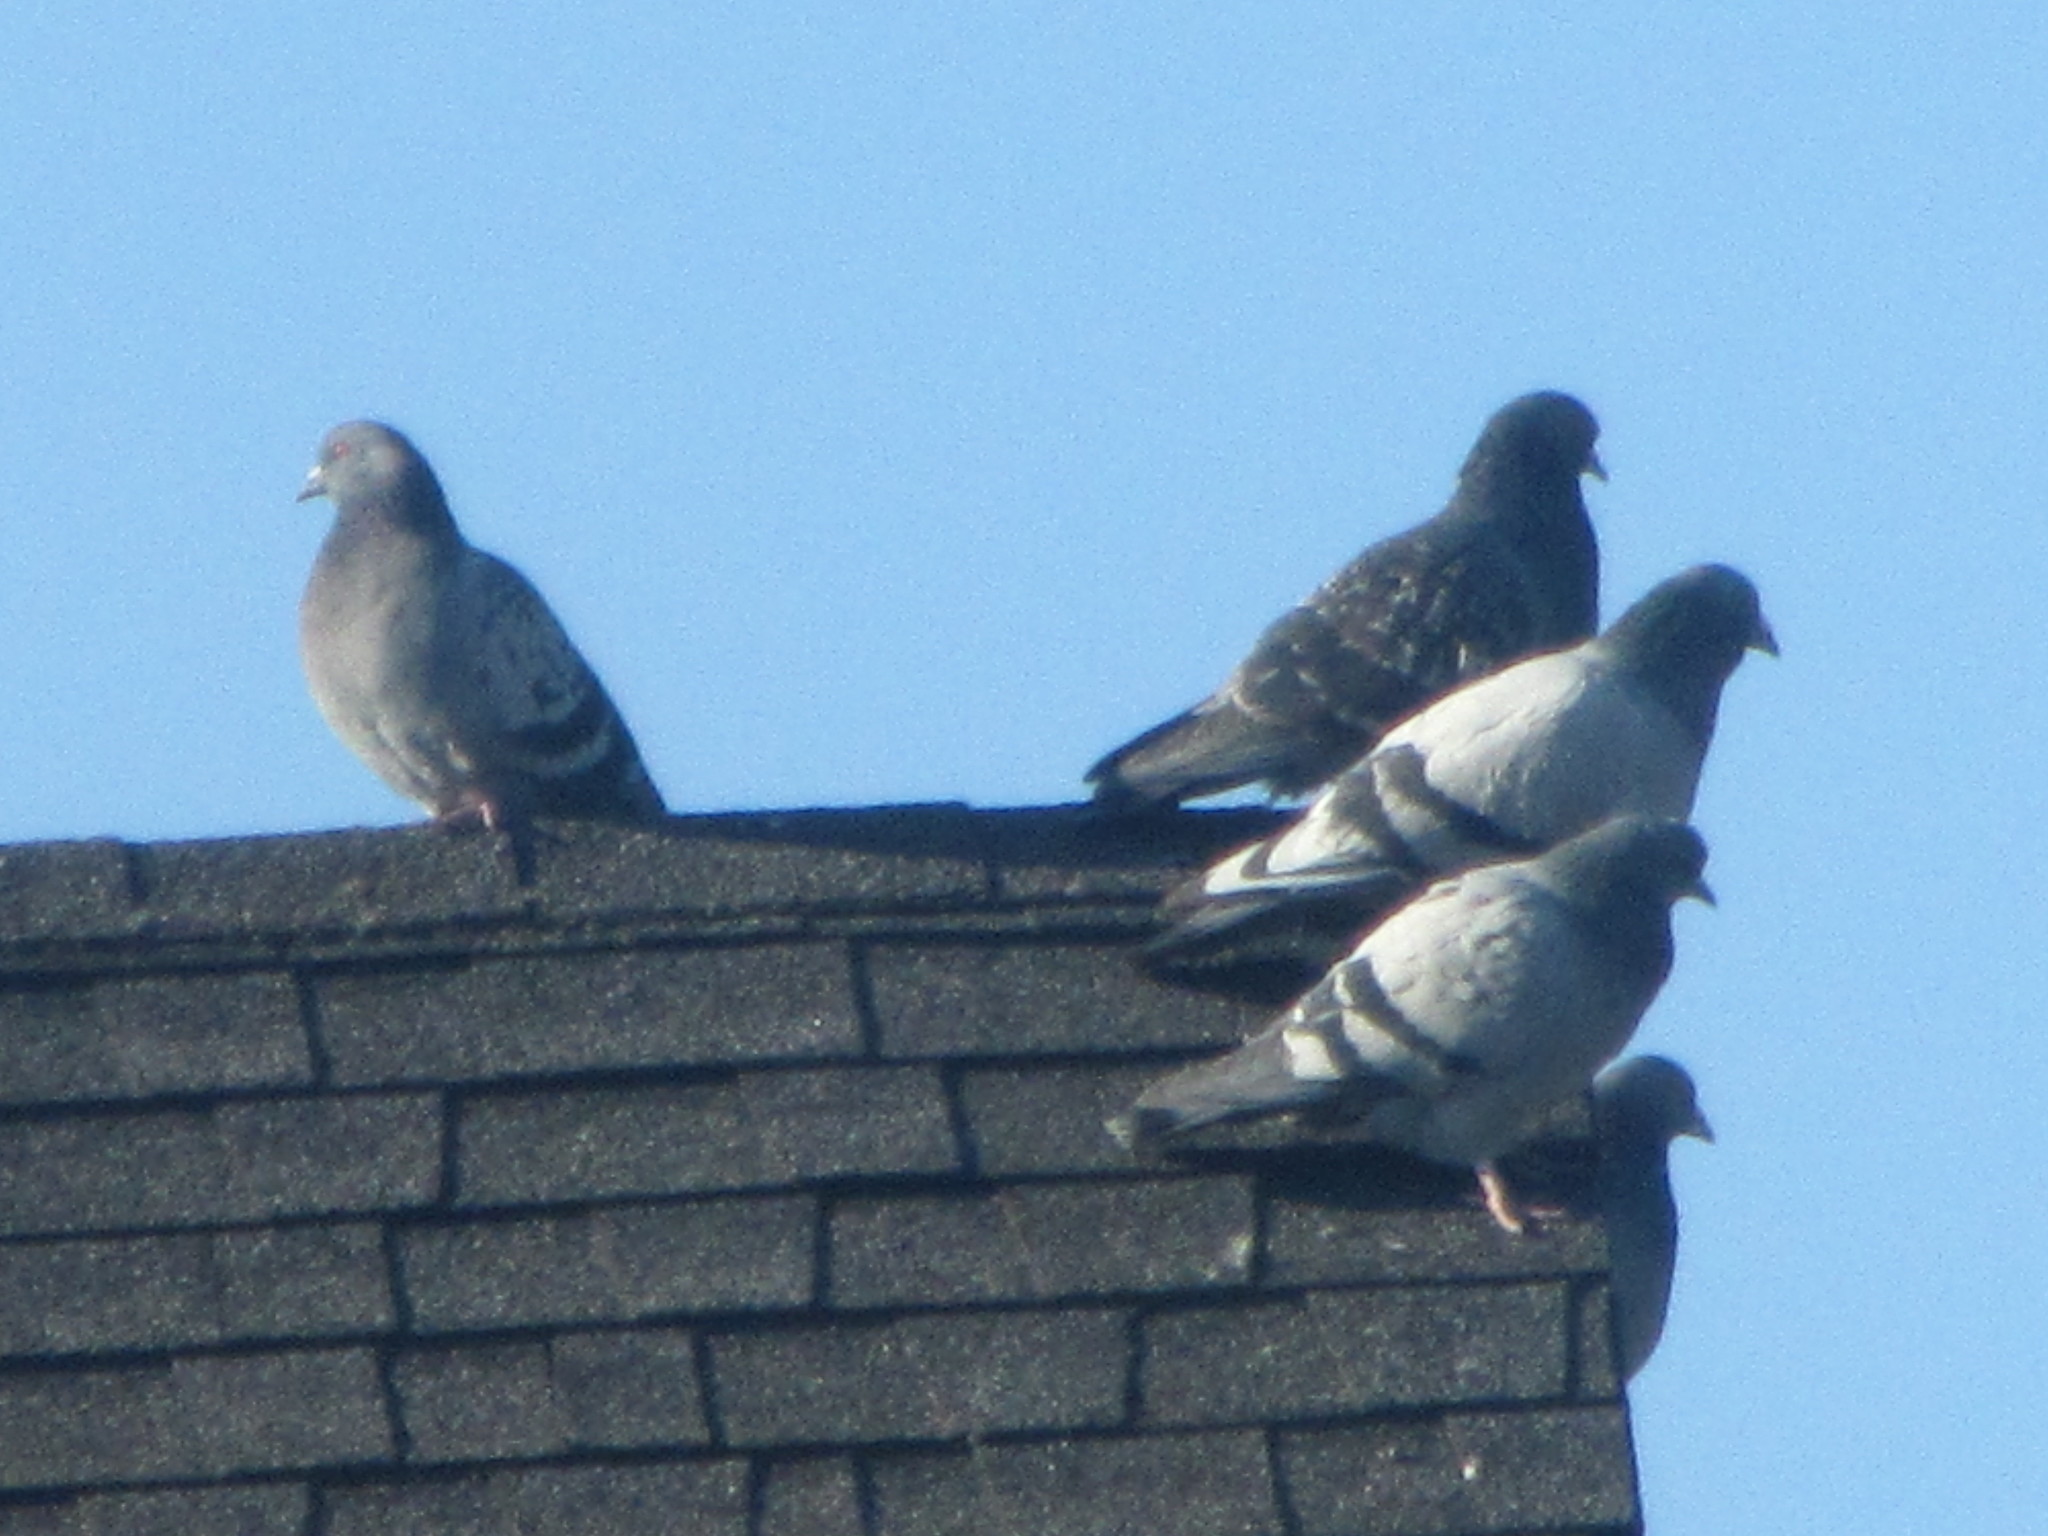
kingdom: Animalia
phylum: Chordata
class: Aves
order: Columbiformes
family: Columbidae
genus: Columba
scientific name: Columba livia
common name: Rock pigeon
